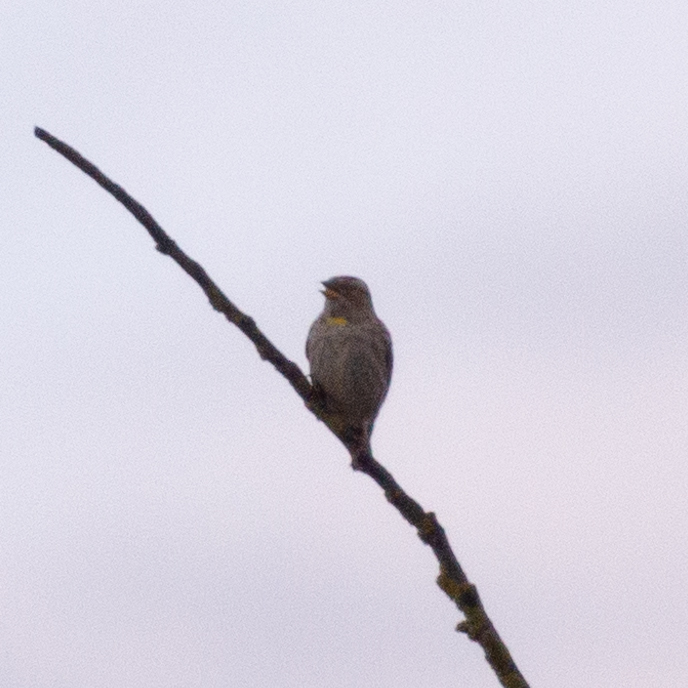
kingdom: Animalia
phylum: Chordata
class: Aves
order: Passeriformes
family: Passeridae
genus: Petronia
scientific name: Petronia petronia
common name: Rock sparrow
